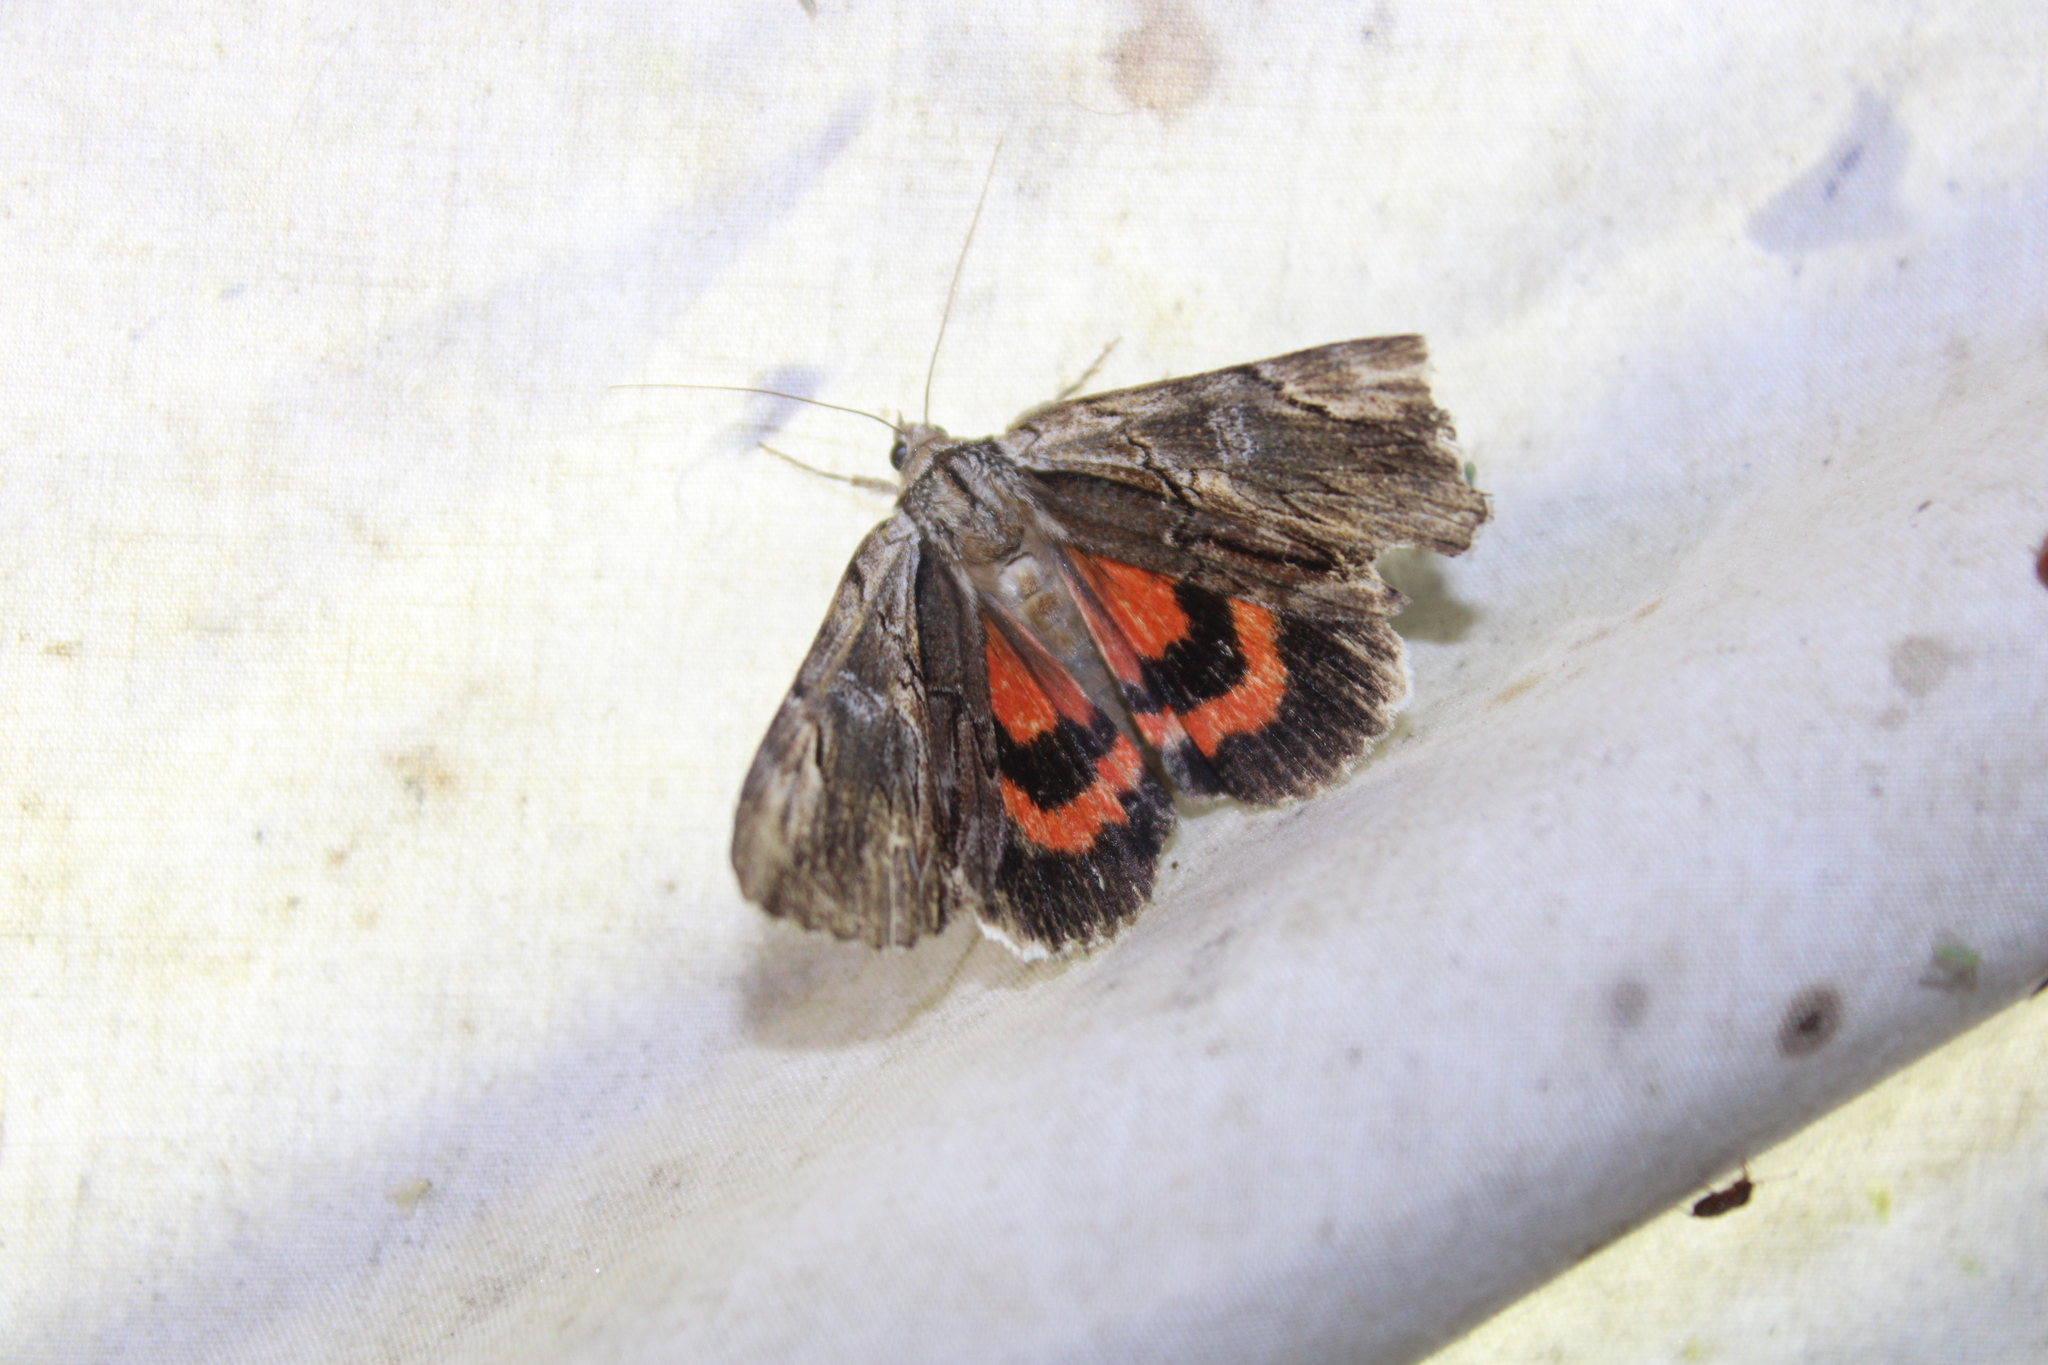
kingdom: Animalia
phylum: Arthropoda
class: Insecta
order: Lepidoptera
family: Erebidae
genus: Catocala
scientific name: Catocala ultronia
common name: Ultronia underwing
